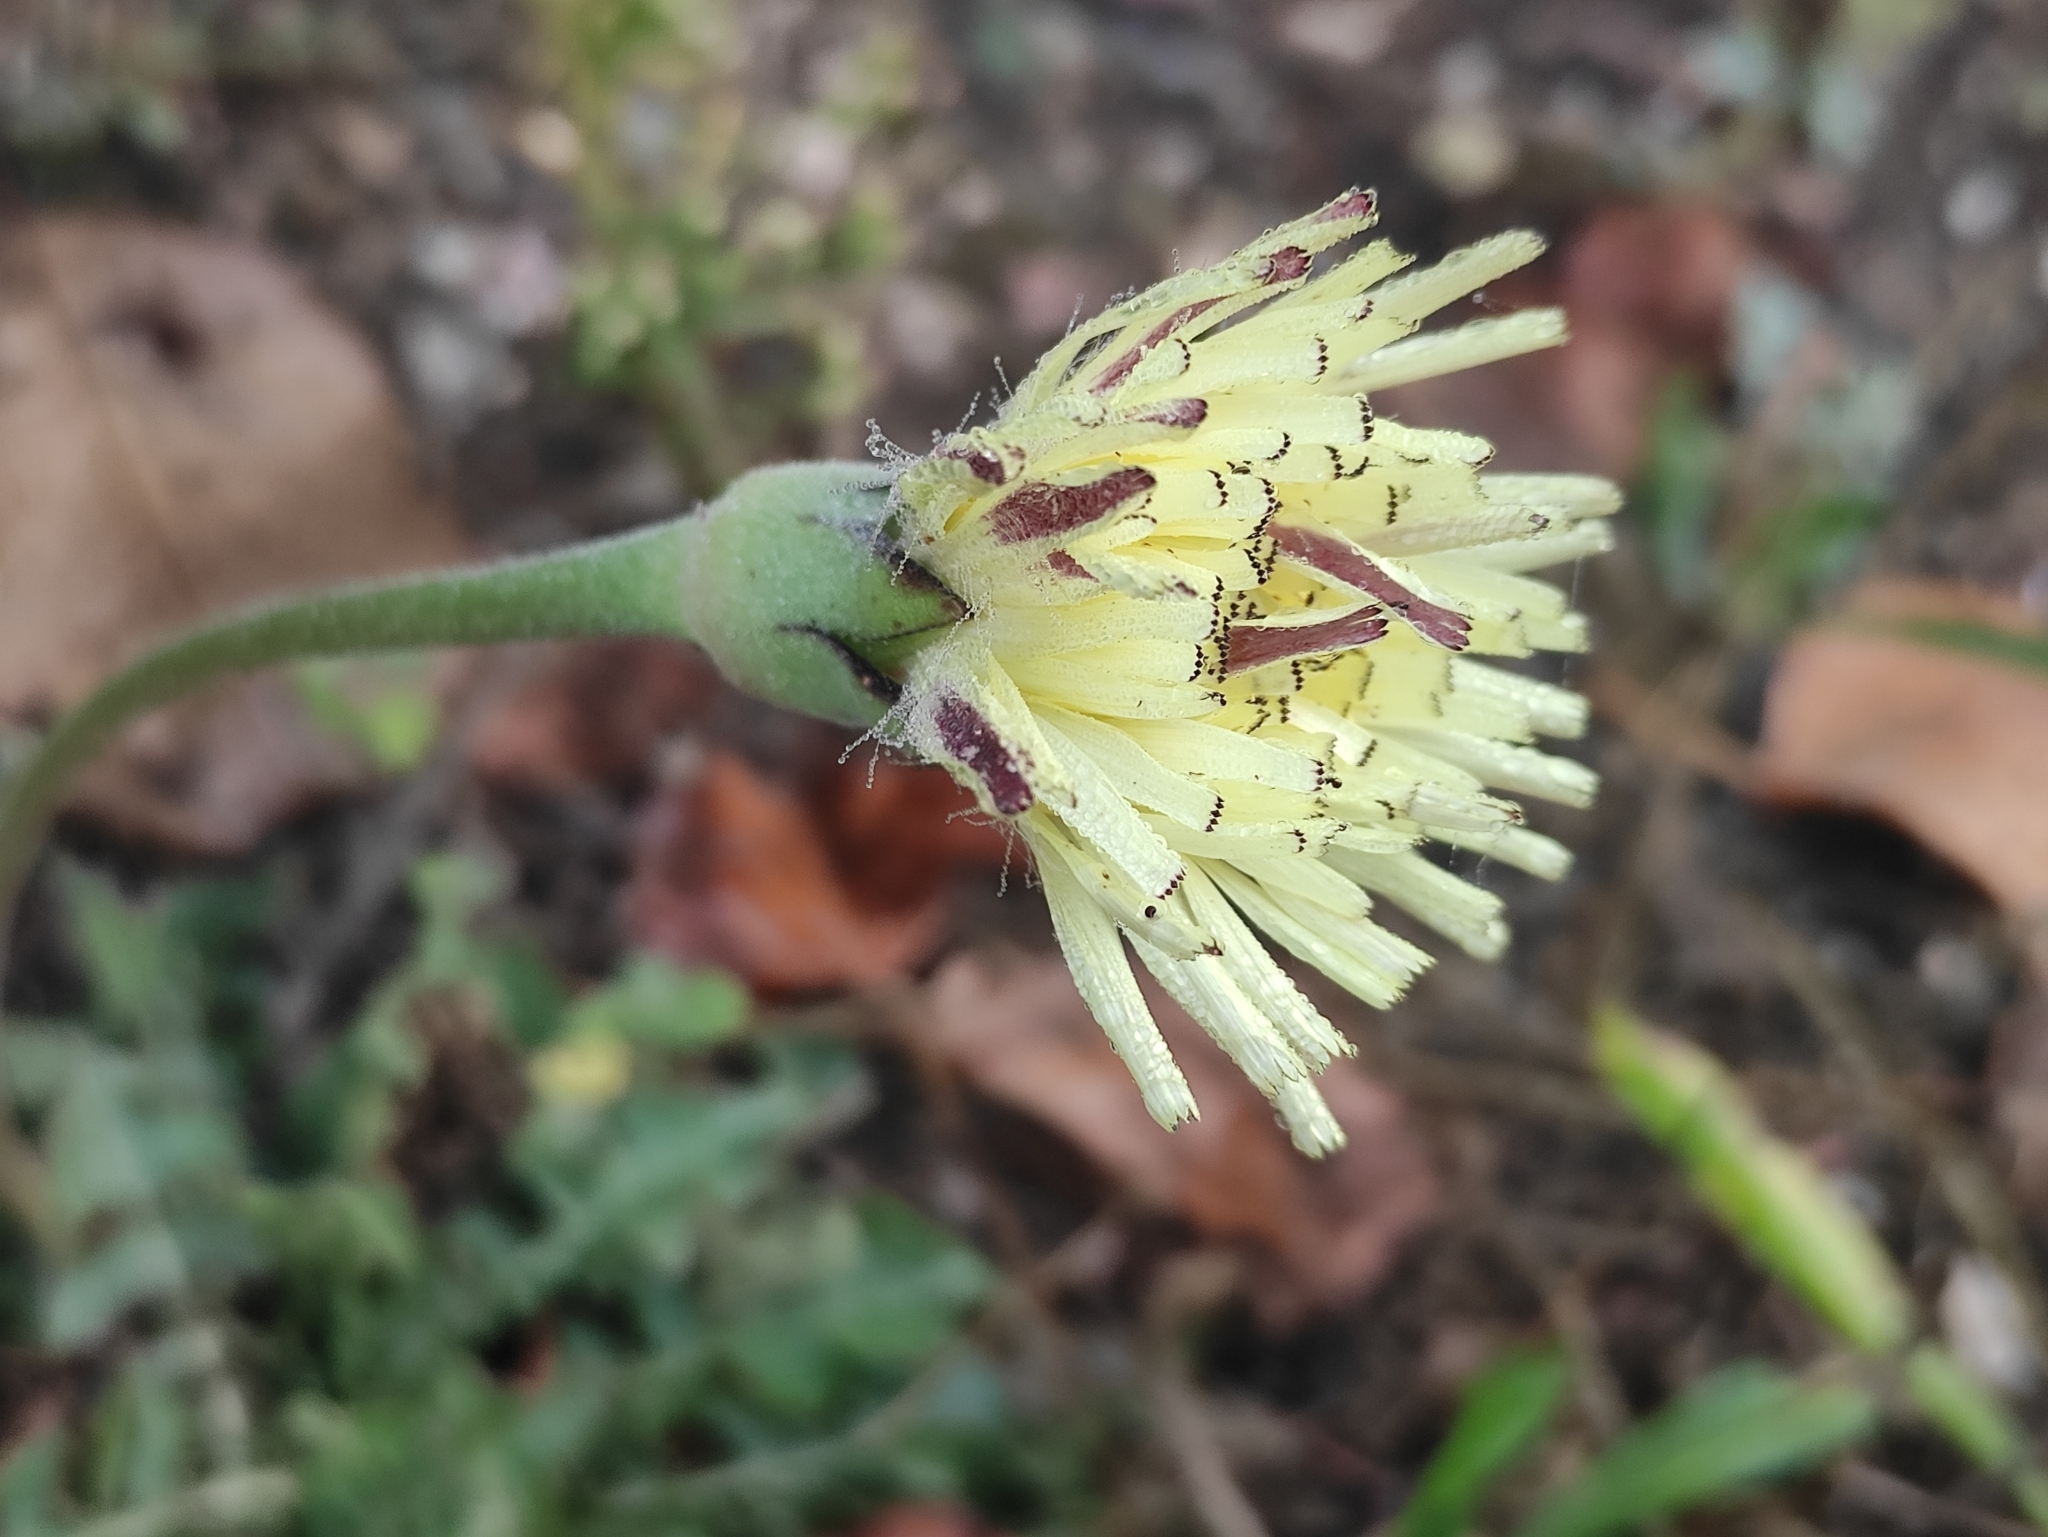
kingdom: Plantae
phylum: Tracheophyta
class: Magnoliopsida
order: Asterales
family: Asteraceae
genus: Urospermum
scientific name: Urospermum dalechampii
